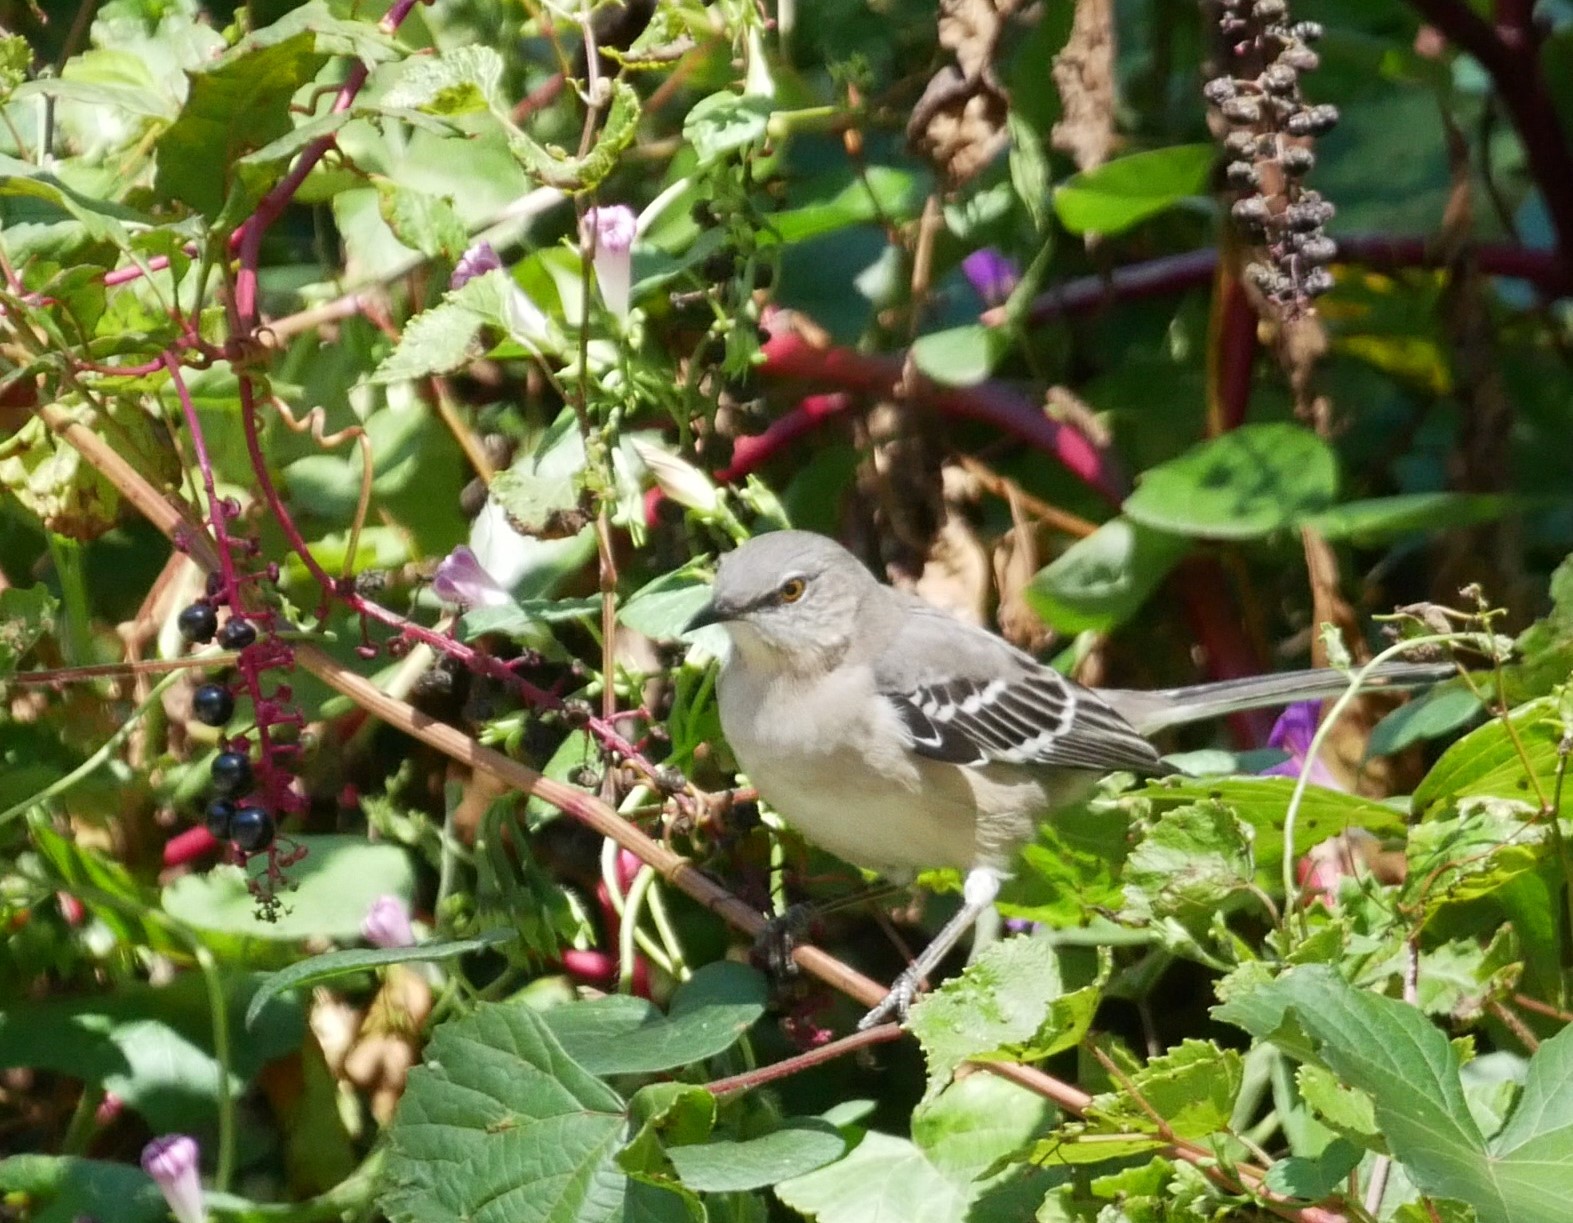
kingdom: Animalia
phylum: Chordata
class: Aves
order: Passeriformes
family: Mimidae
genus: Mimus
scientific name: Mimus polyglottos
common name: Northern mockingbird
